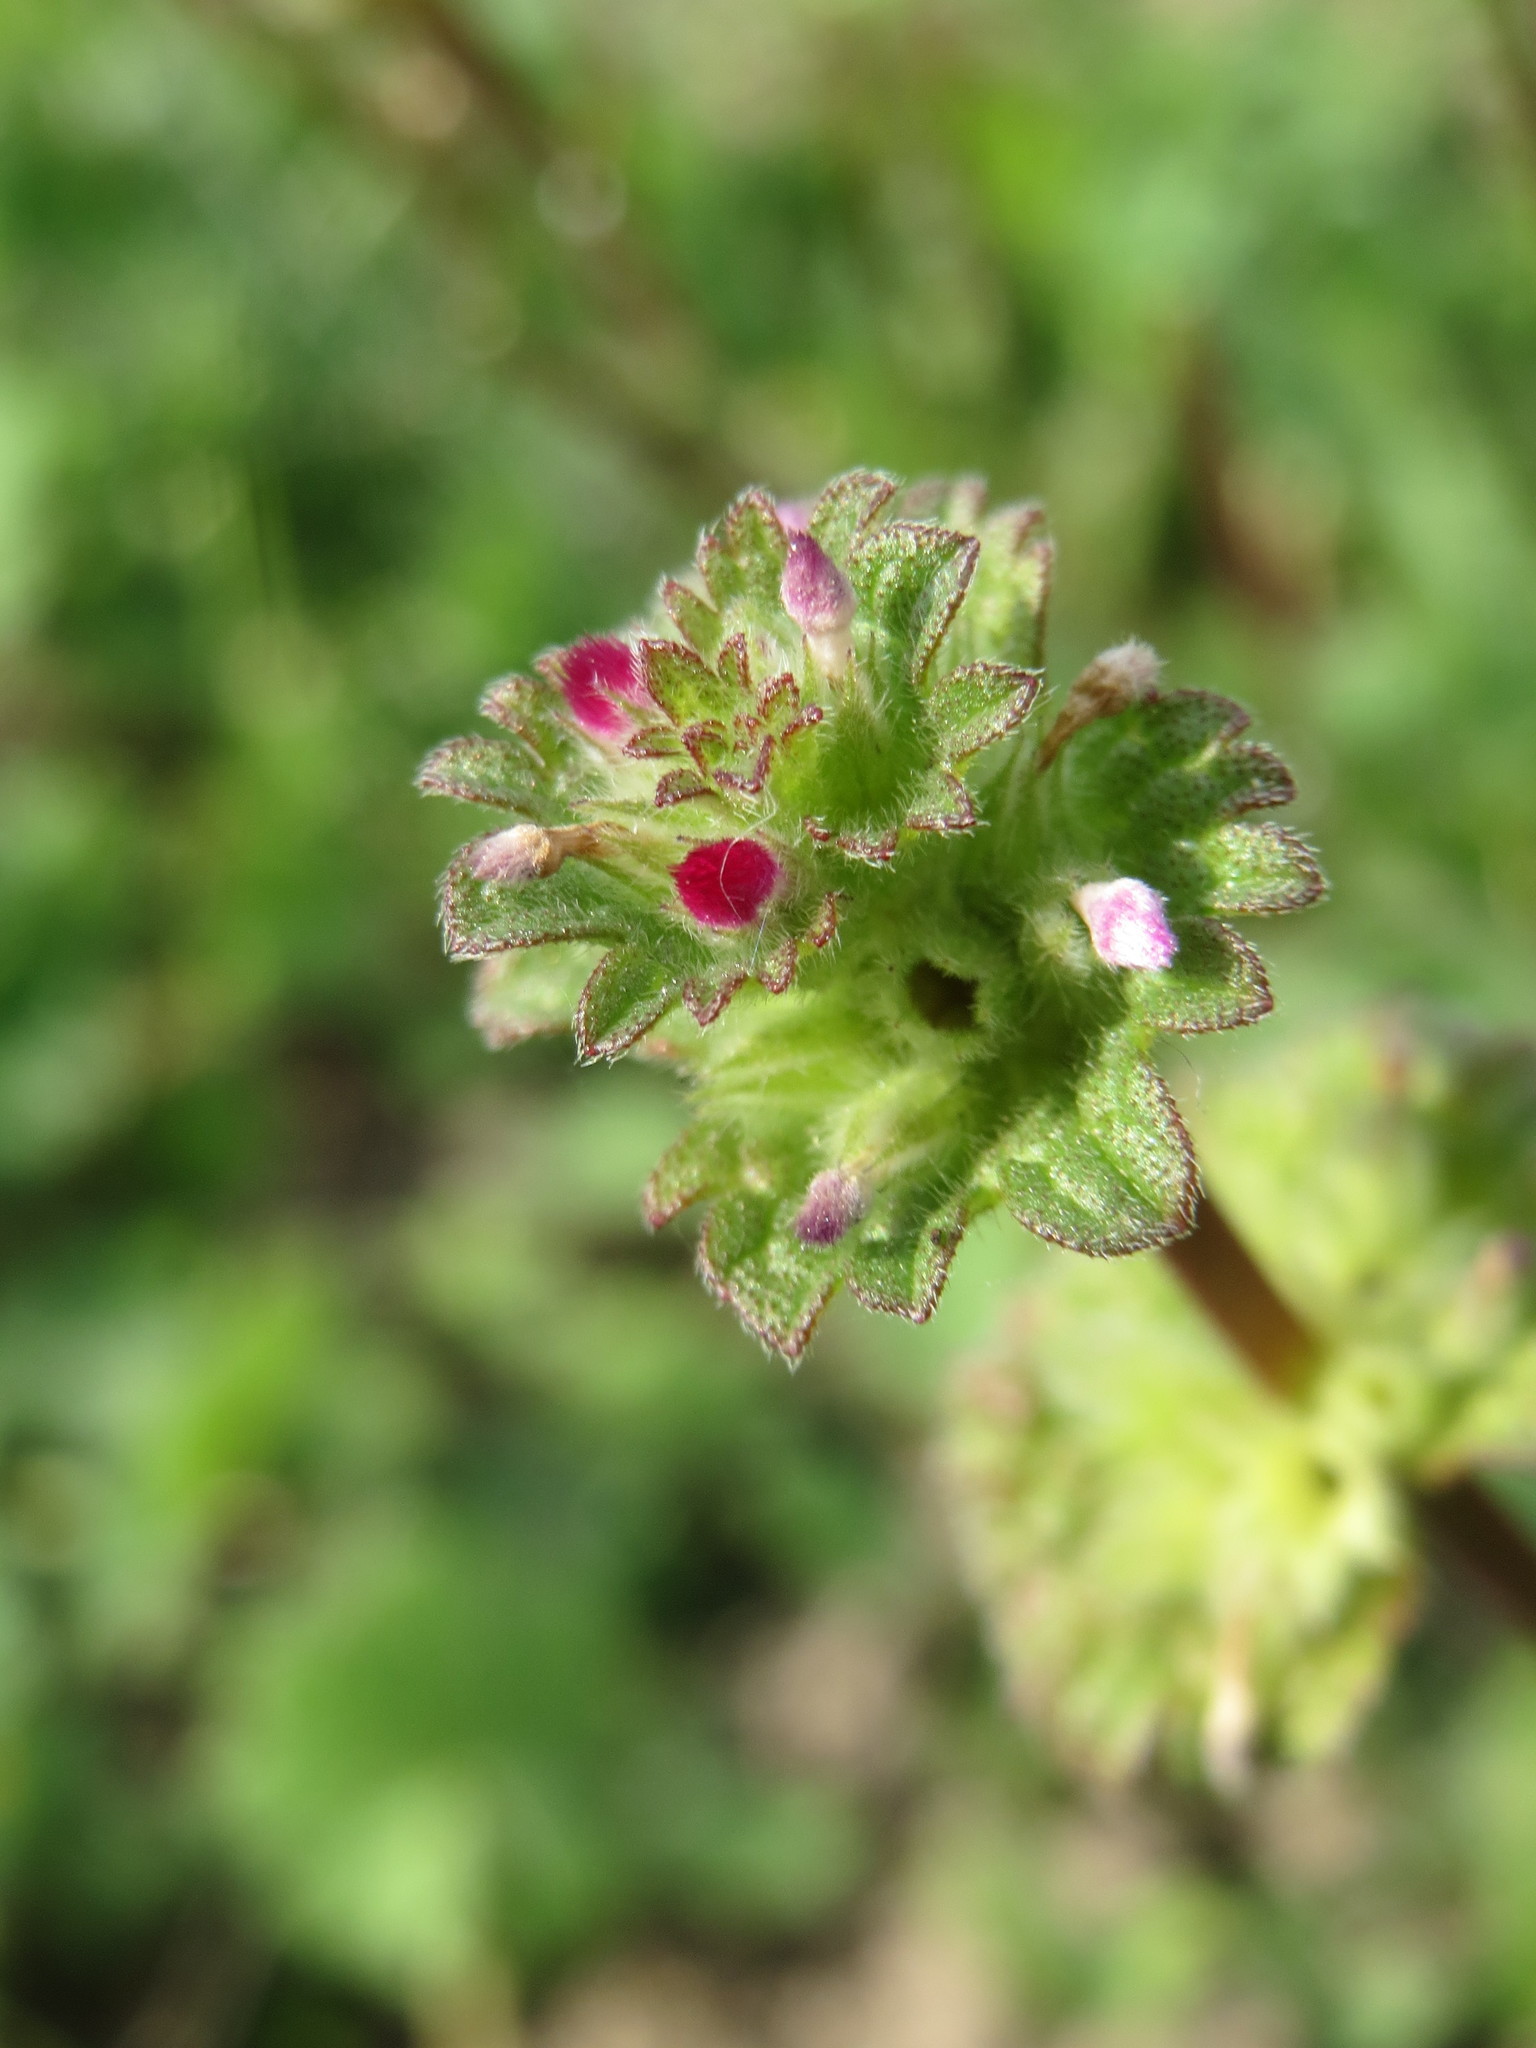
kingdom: Plantae
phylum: Tracheophyta
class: Magnoliopsida
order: Lamiales
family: Lamiaceae
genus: Lamium
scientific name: Lamium amplexicaule
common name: Henbit dead-nettle
